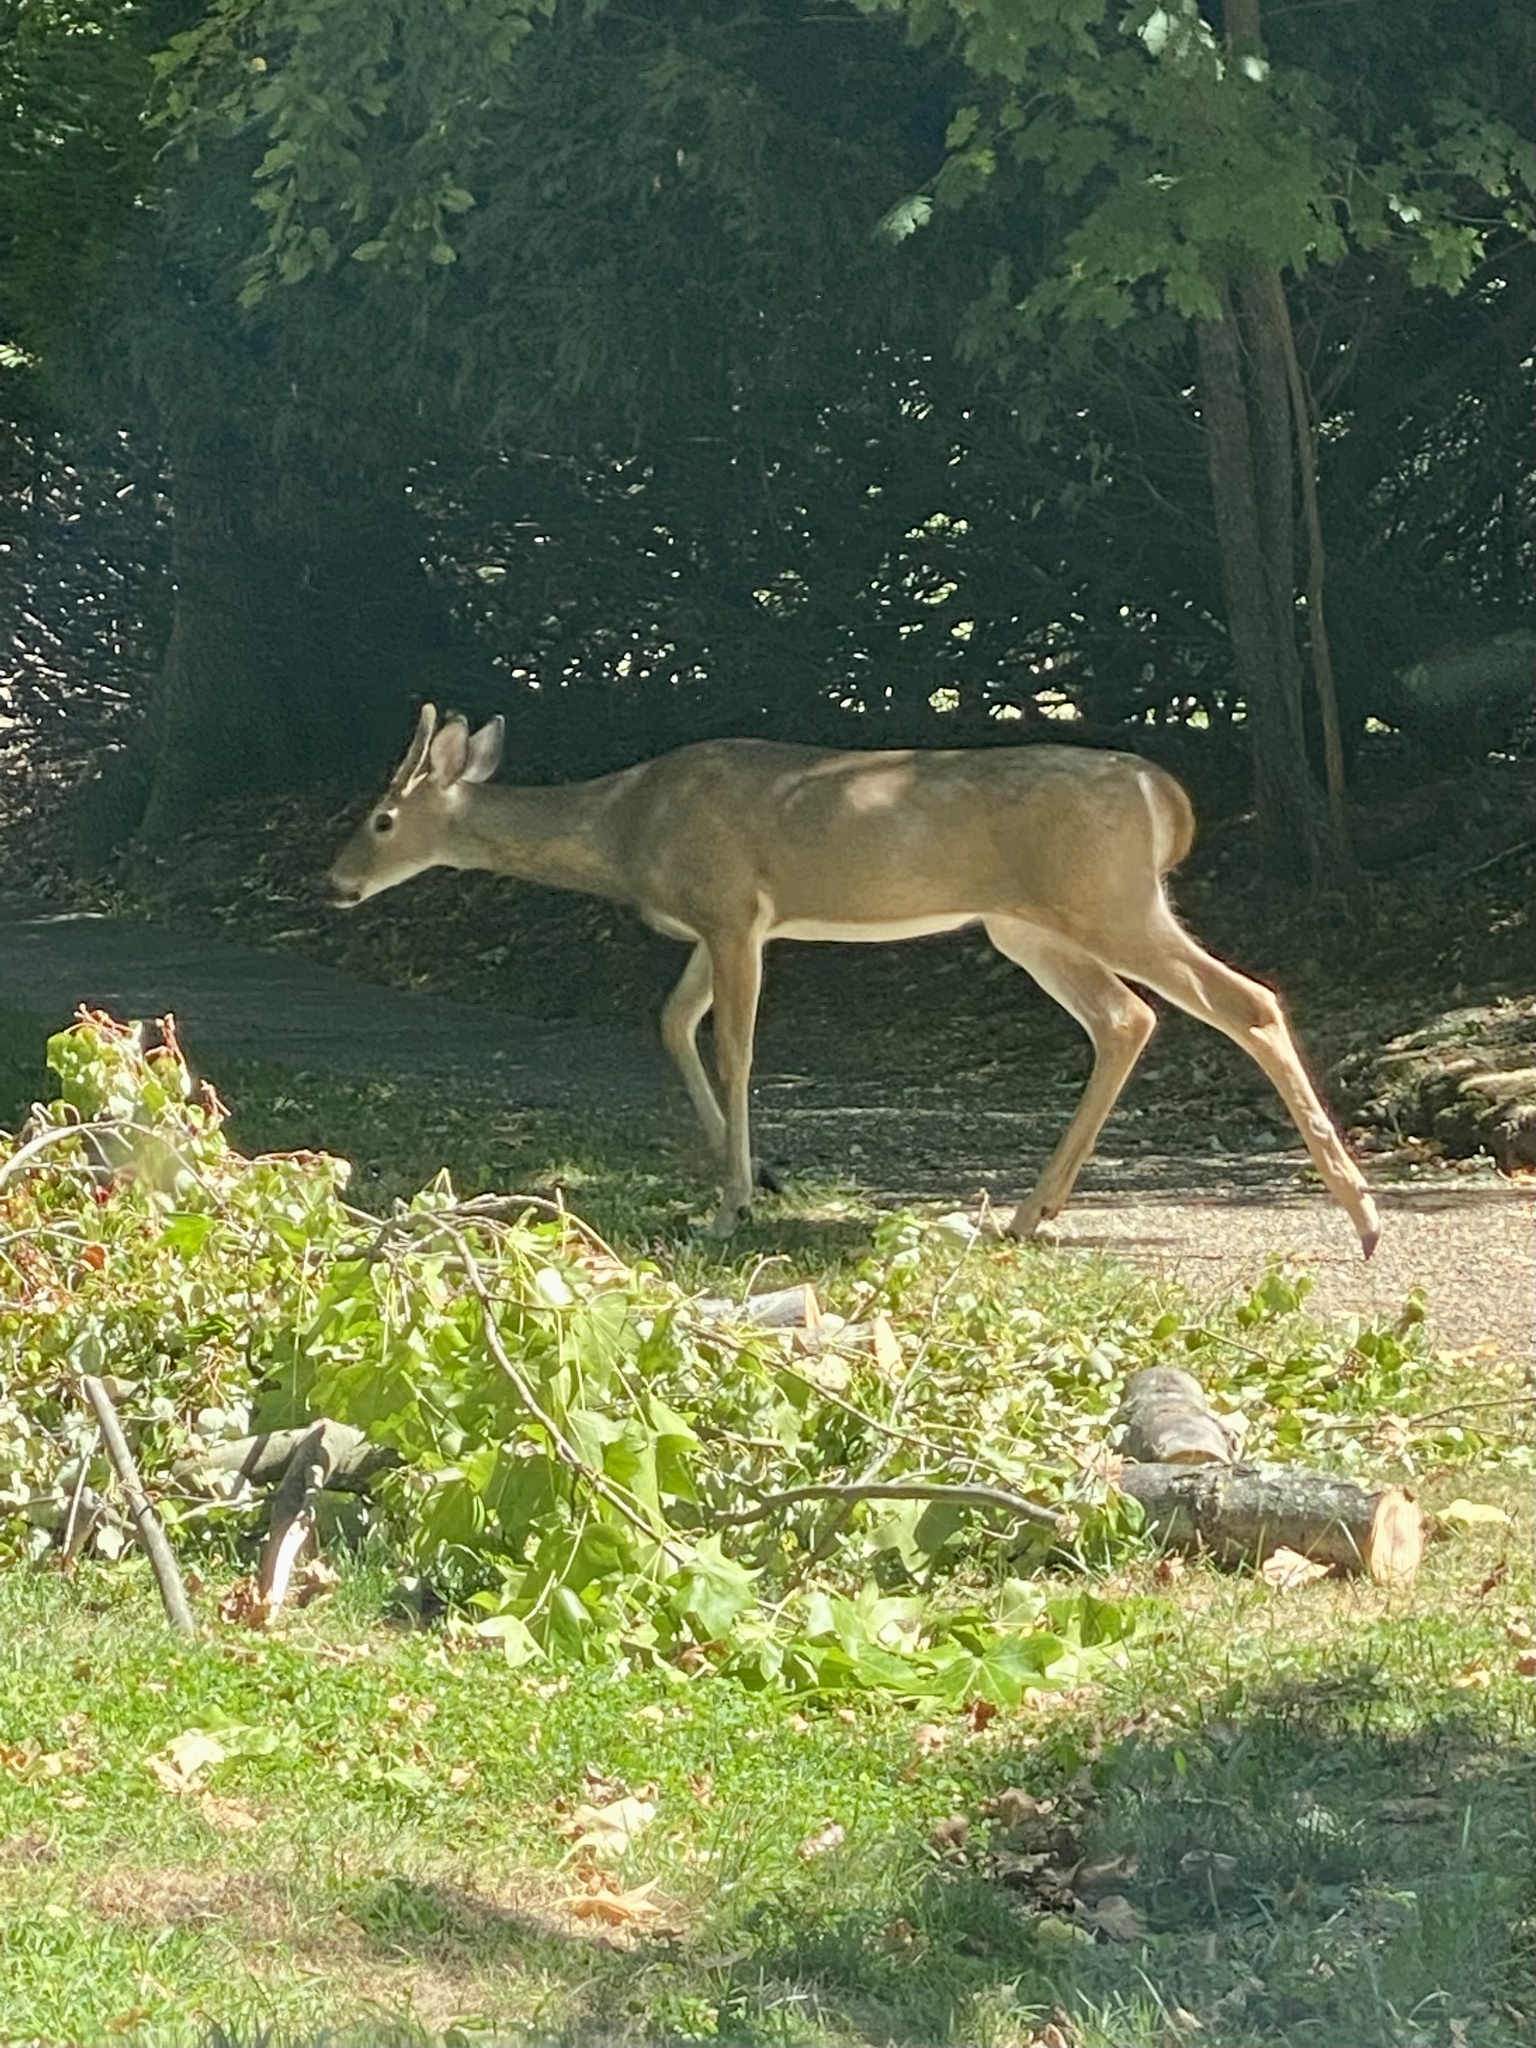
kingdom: Animalia
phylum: Chordata
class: Mammalia
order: Artiodactyla
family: Cervidae
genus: Odocoileus
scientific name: Odocoileus virginianus
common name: White-tailed deer
